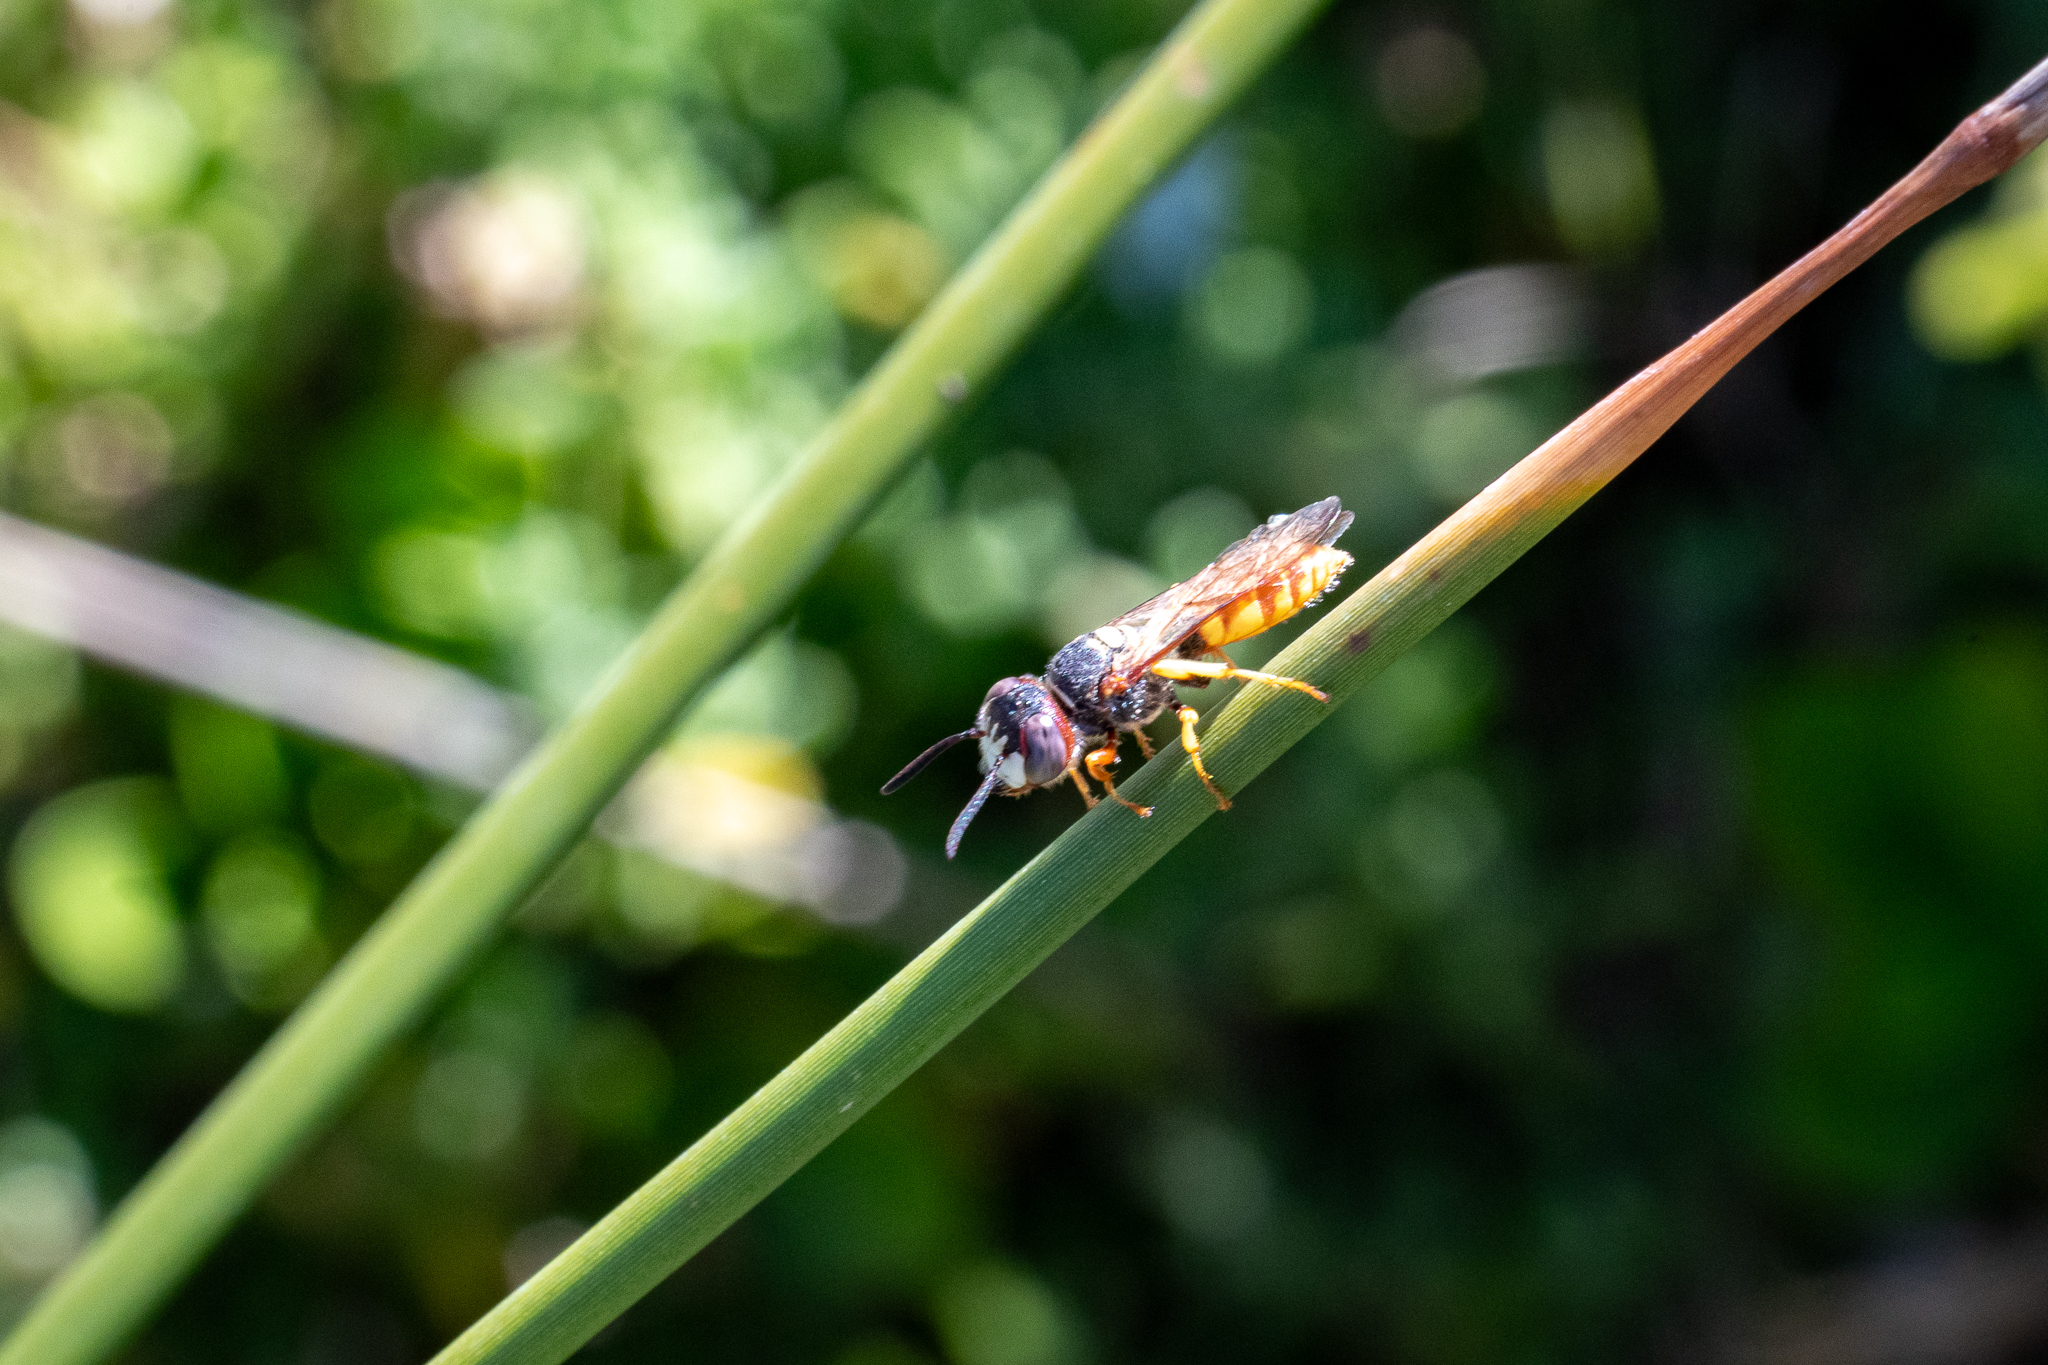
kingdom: Animalia
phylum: Arthropoda
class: Insecta
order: Hymenoptera
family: Crabronidae
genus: Philanthus
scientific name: Philanthus triangulum
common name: Bee wolf
